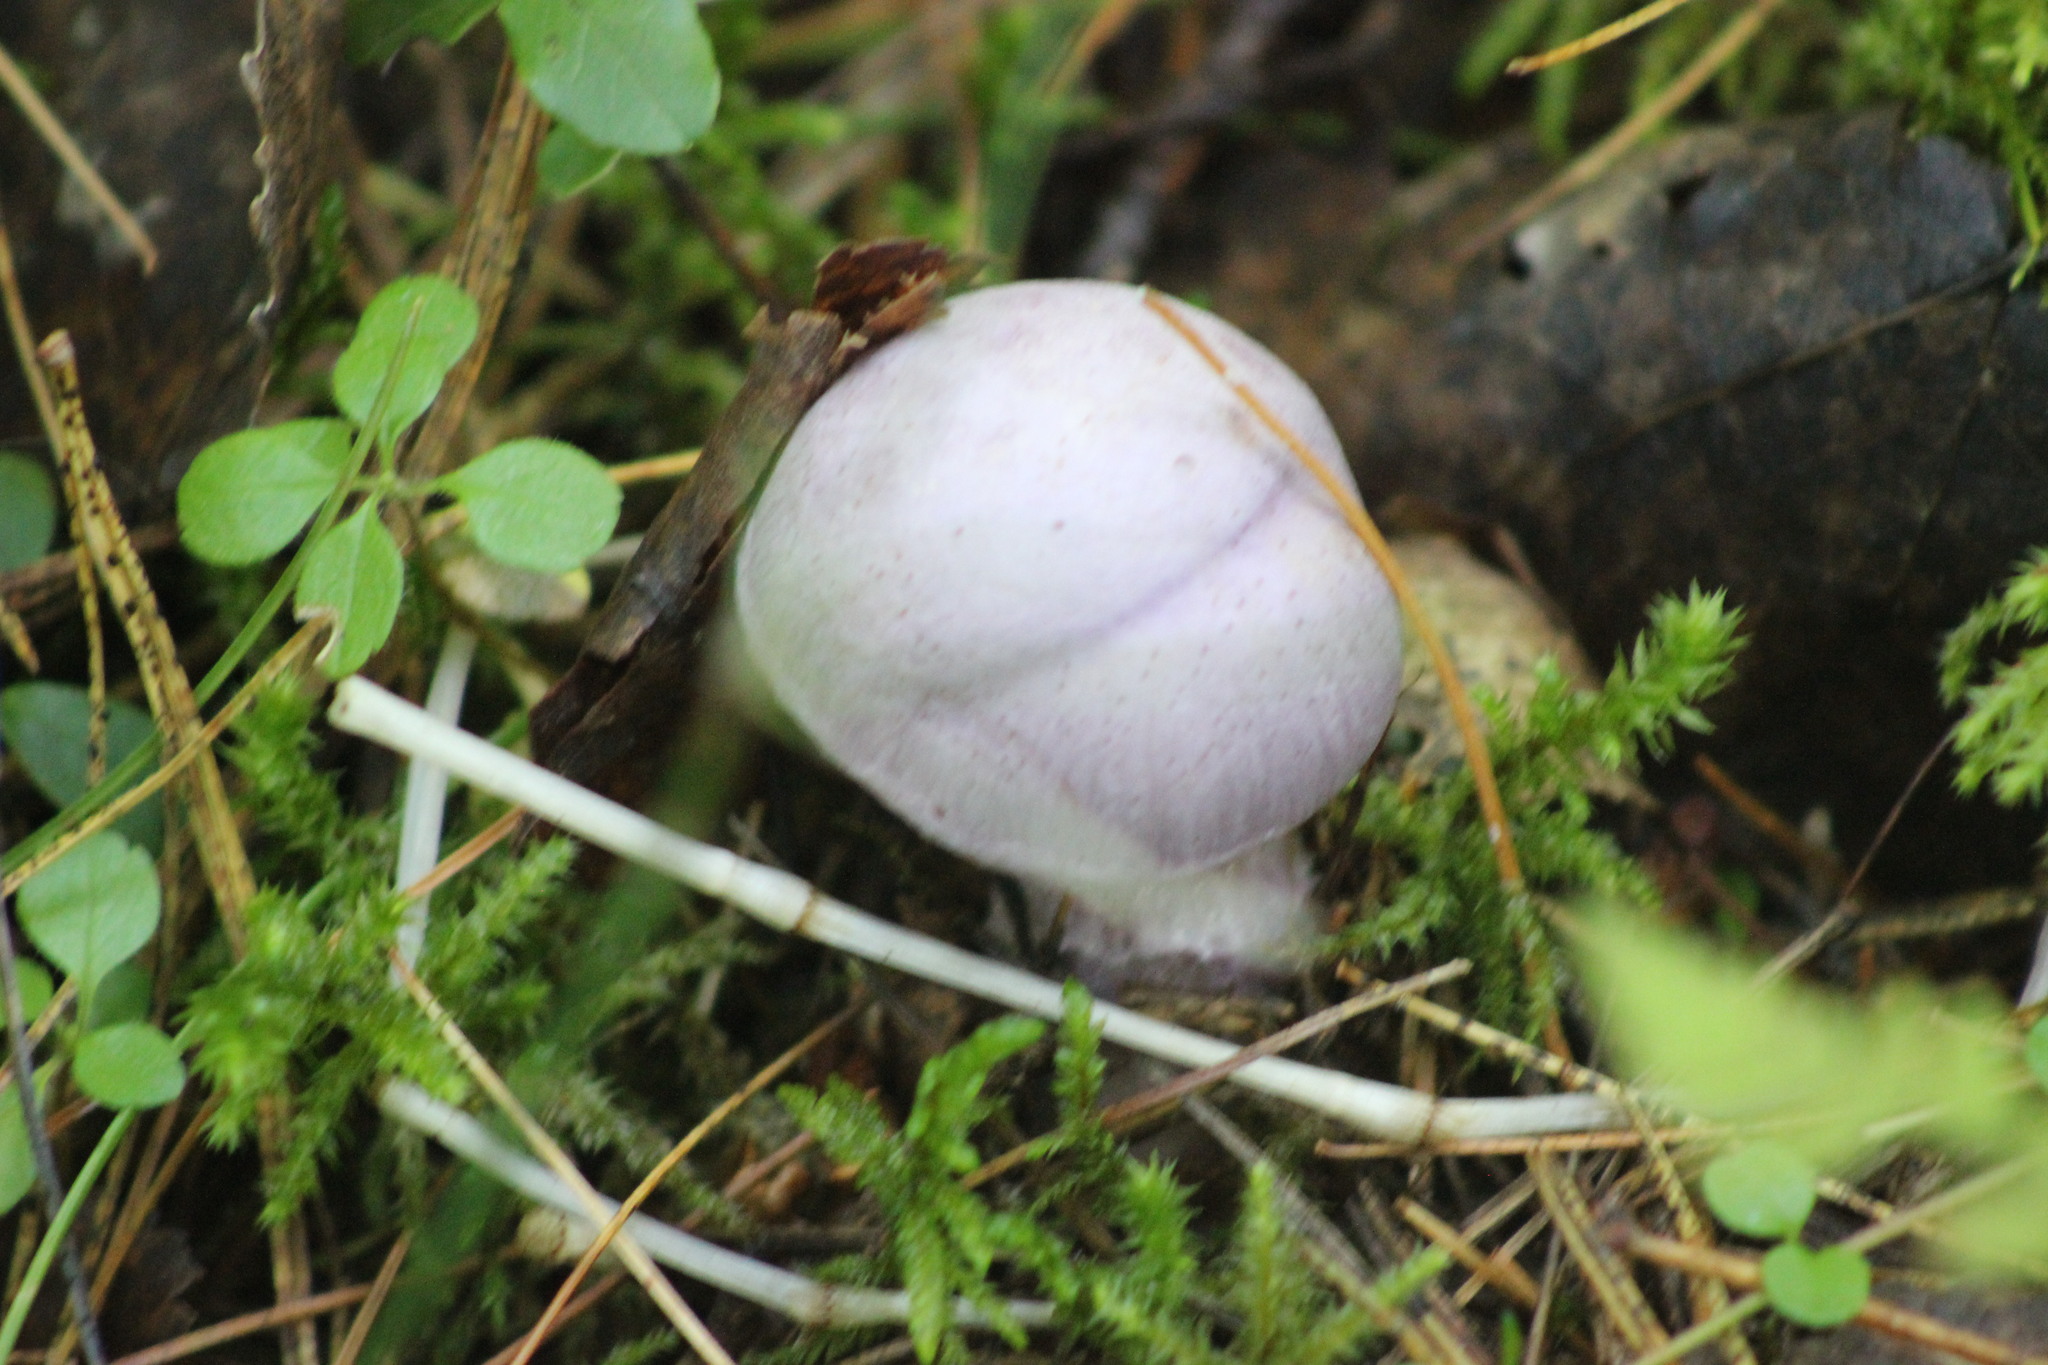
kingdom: Fungi
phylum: Basidiomycota
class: Agaricomycetes
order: Agaricales
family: Cortinariaceae
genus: Cortinarius
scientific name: Cortinarius camphoratus
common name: Goatcheese webcap
